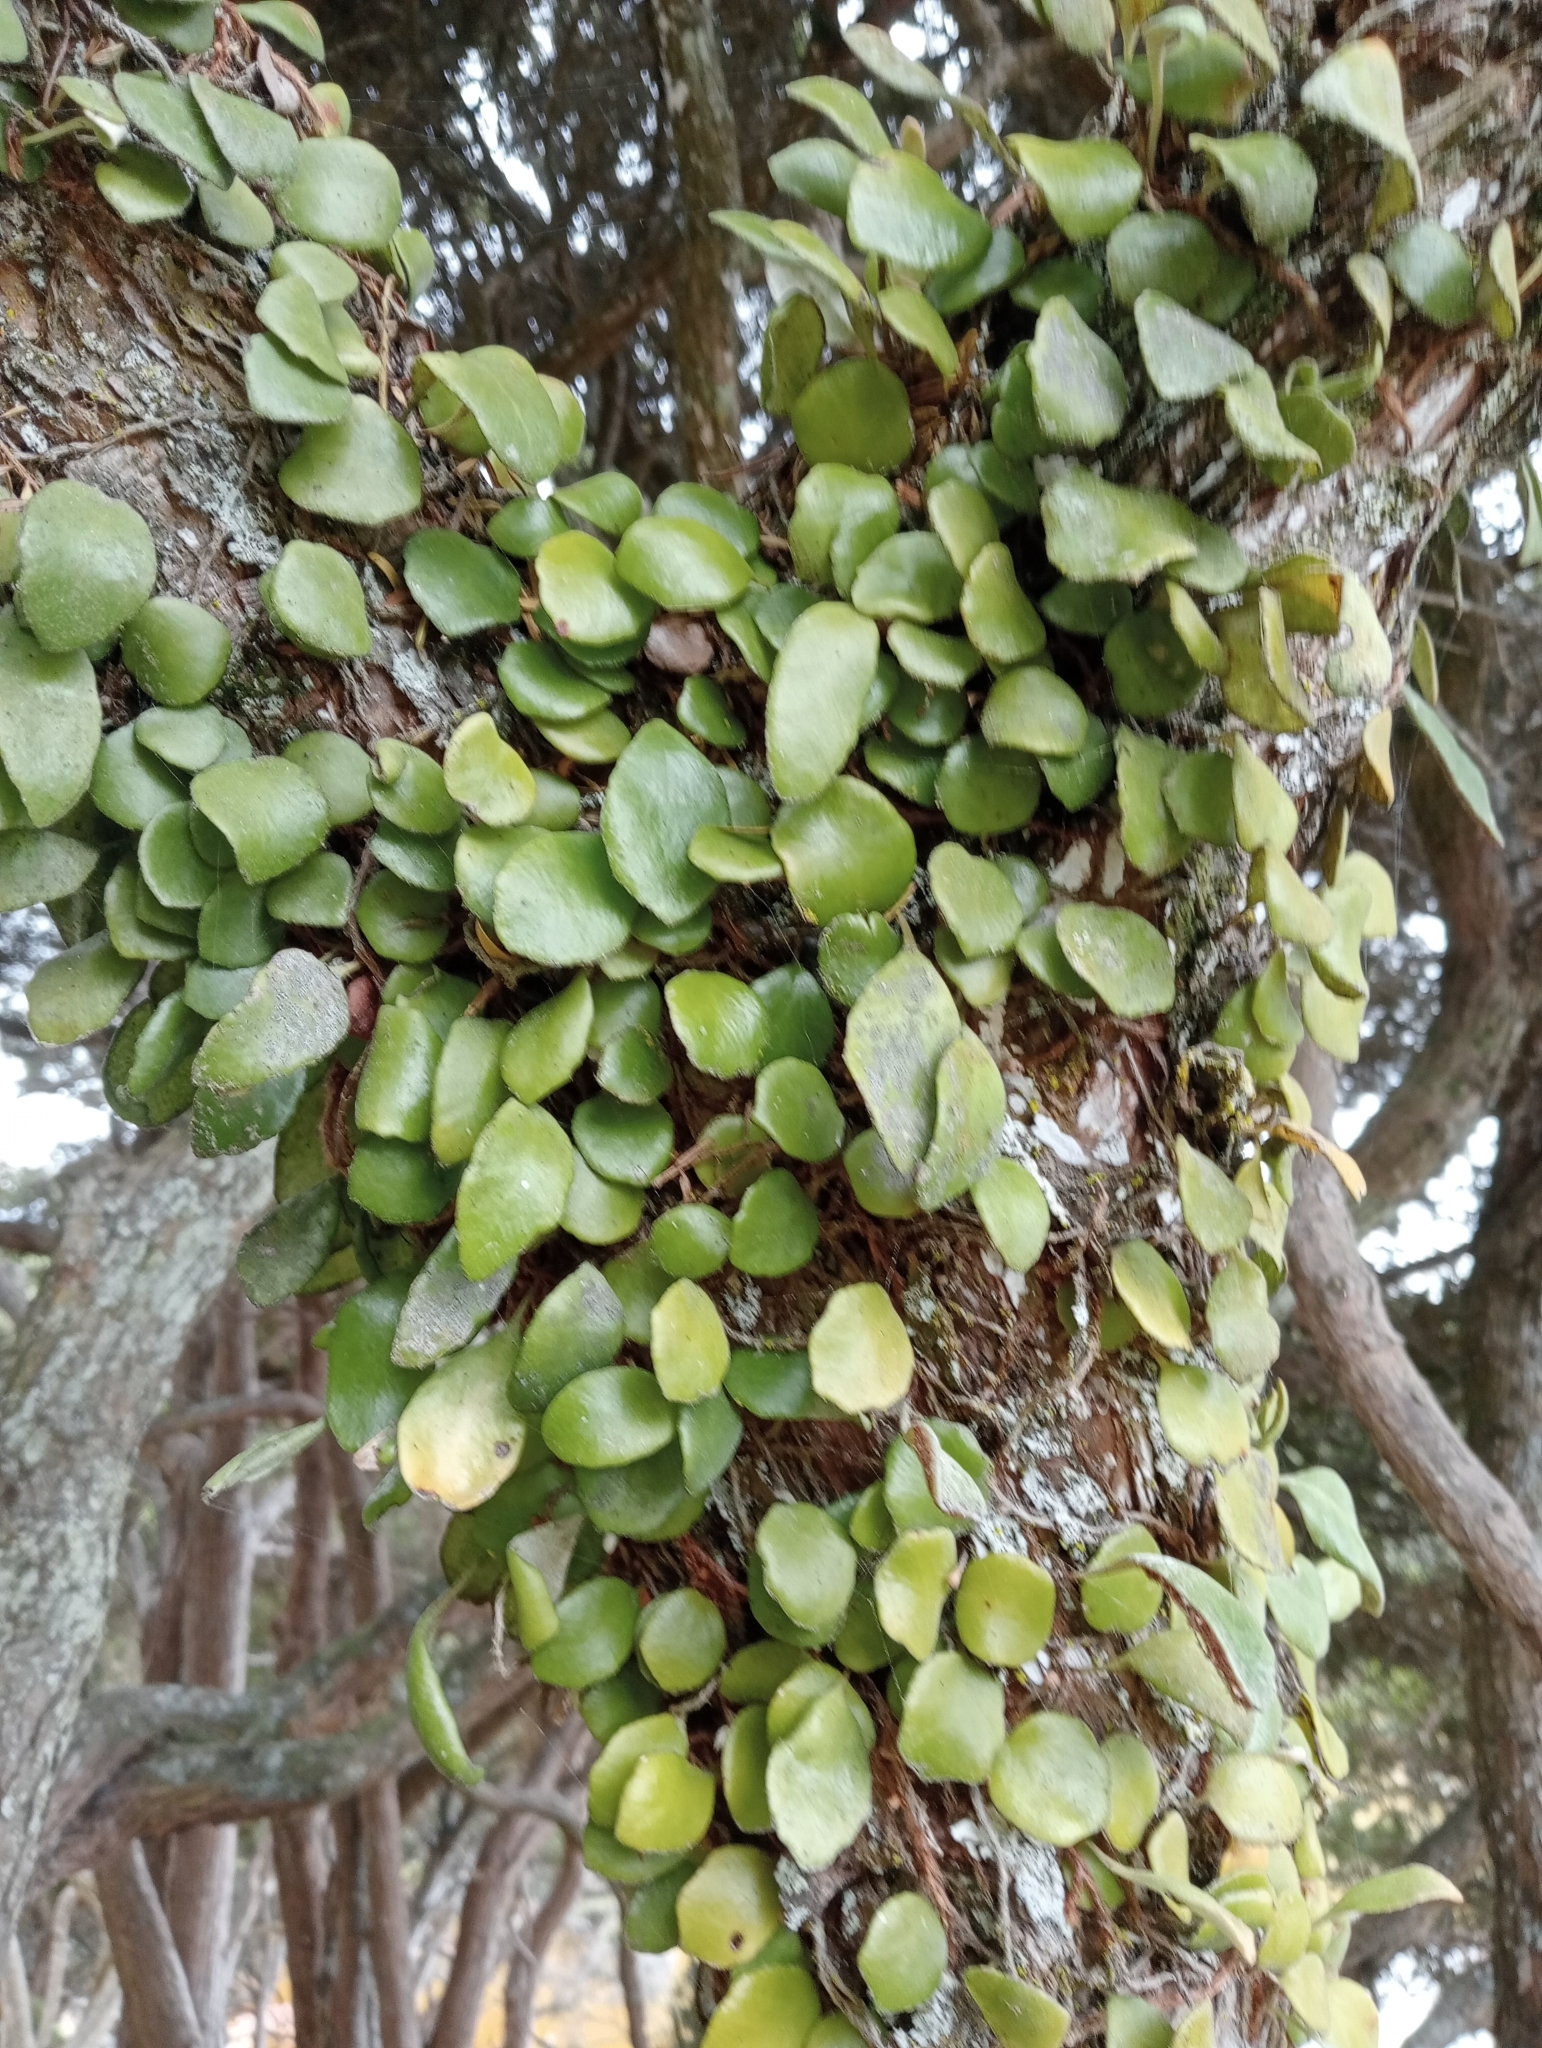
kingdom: Plantae
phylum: Tracheophyta
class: Polypodiopsida
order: Polypodiales
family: Polypodiaceae
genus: Pyrrosia
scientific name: Pyrrosia eleagnifolia
